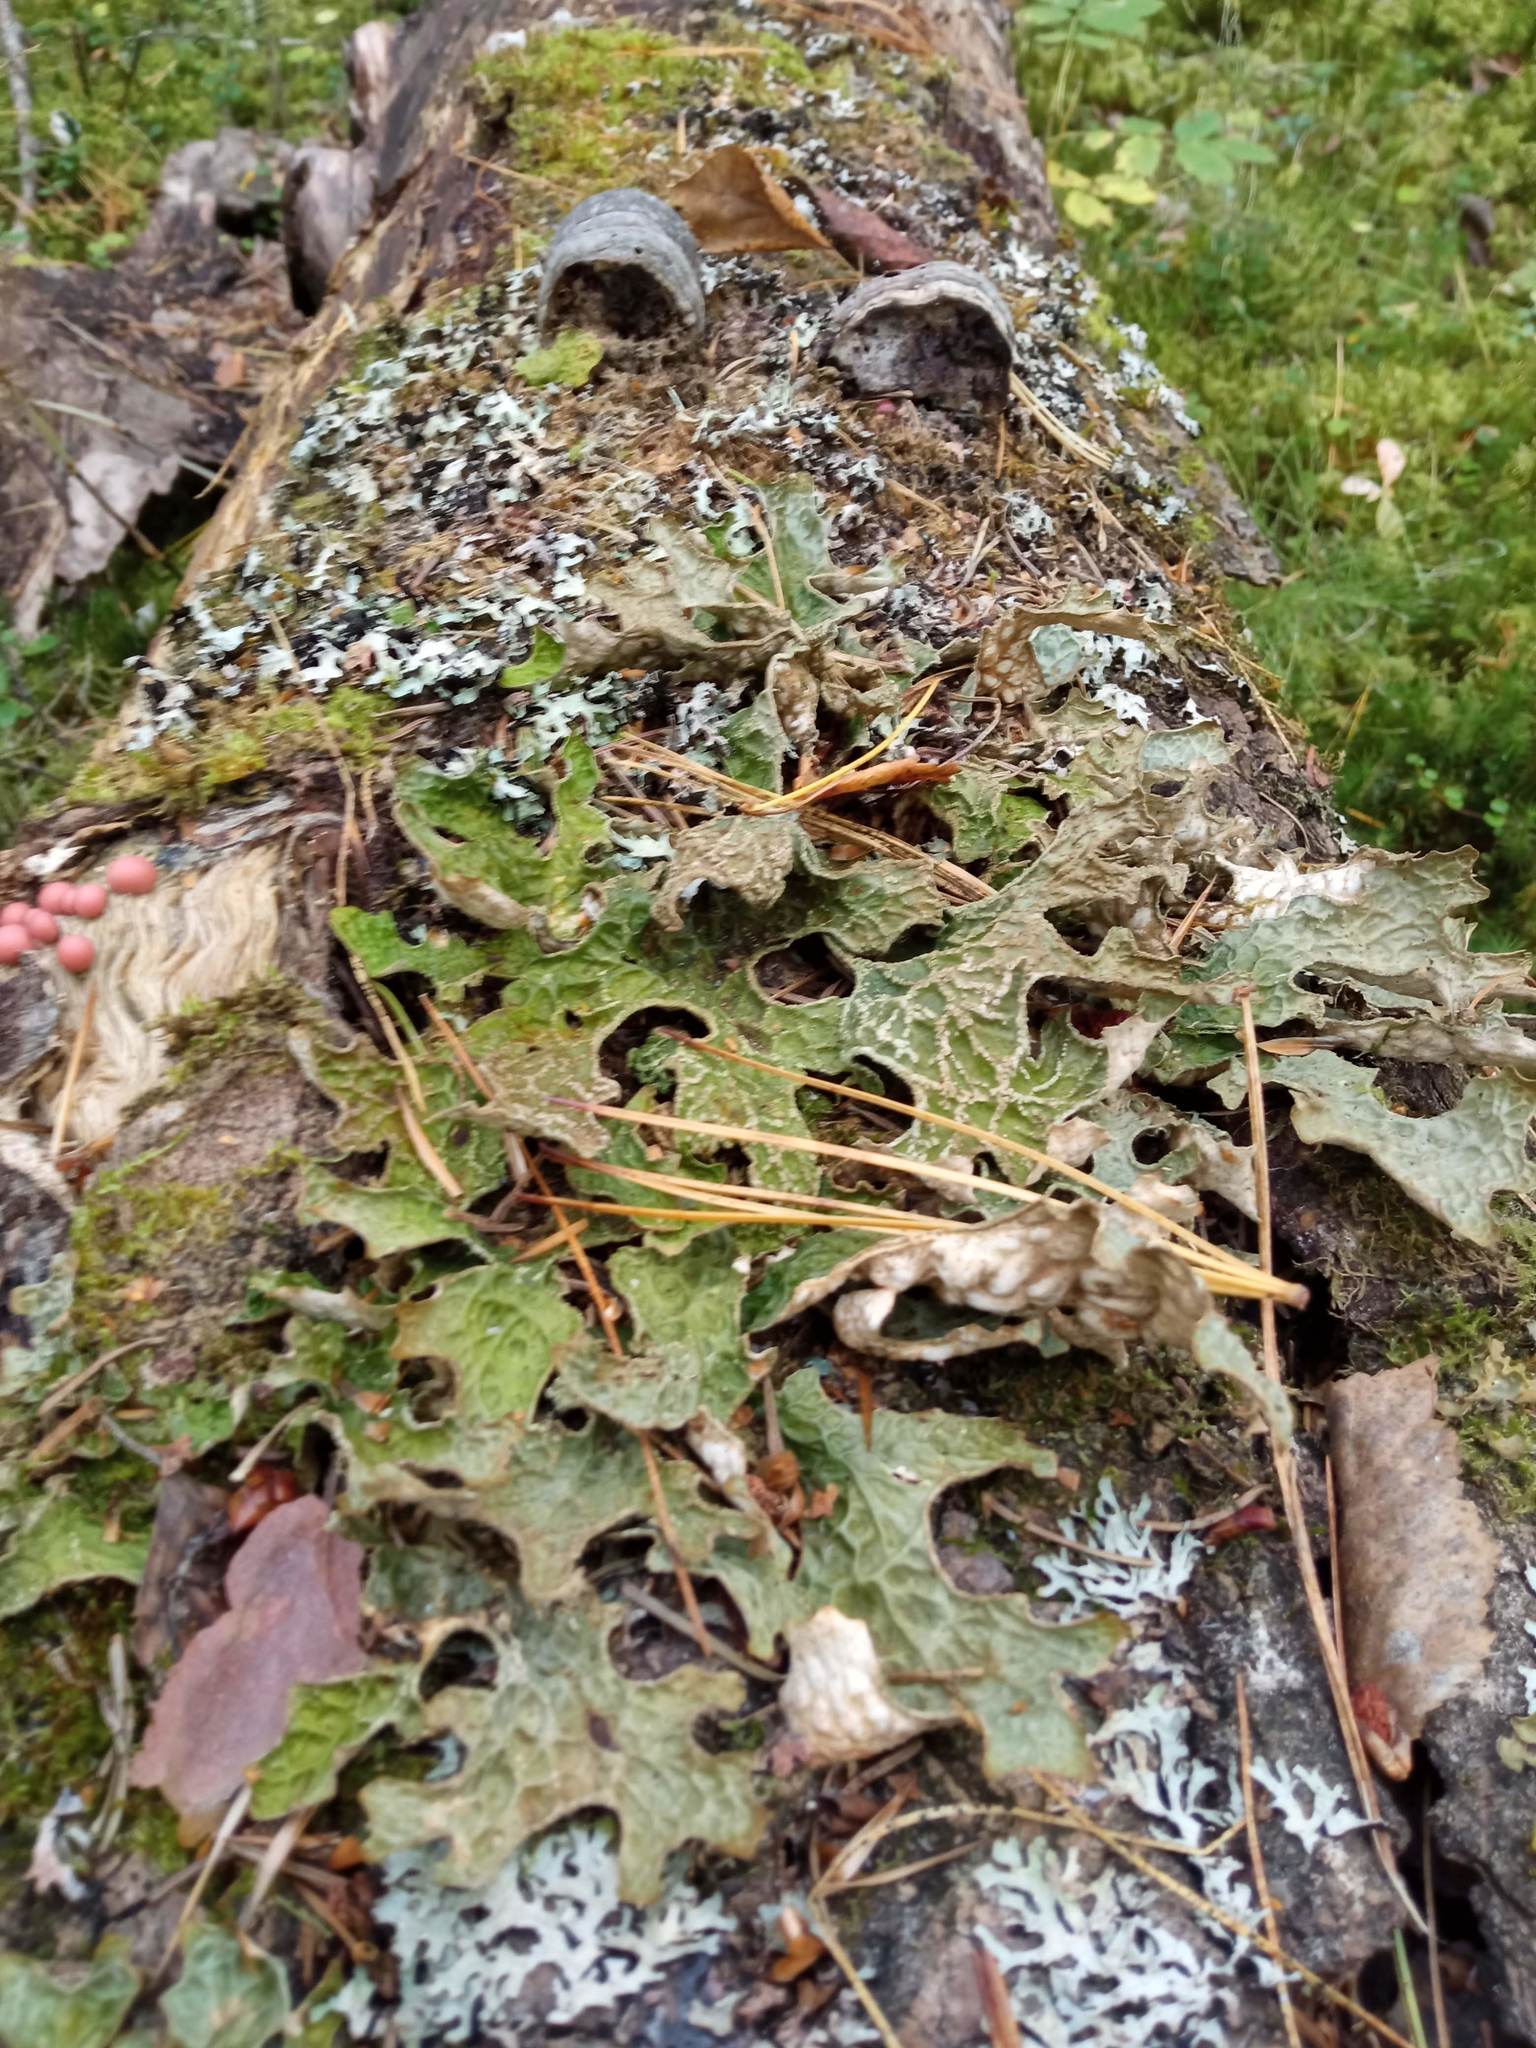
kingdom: Fungi
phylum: Ascomycota
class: Lecanoromycetes
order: Peltigerales
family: Lobariaceae
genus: Lobaria
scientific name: Lobaria pulmonaria
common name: Lungwort
